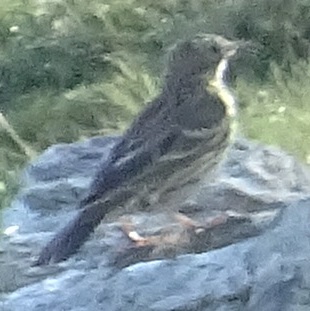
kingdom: Animalia
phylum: Chordata
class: Aves
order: Passeriformes
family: Motacillidae
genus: Anthus
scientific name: Anthus pratensis
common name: Meadow pipit
